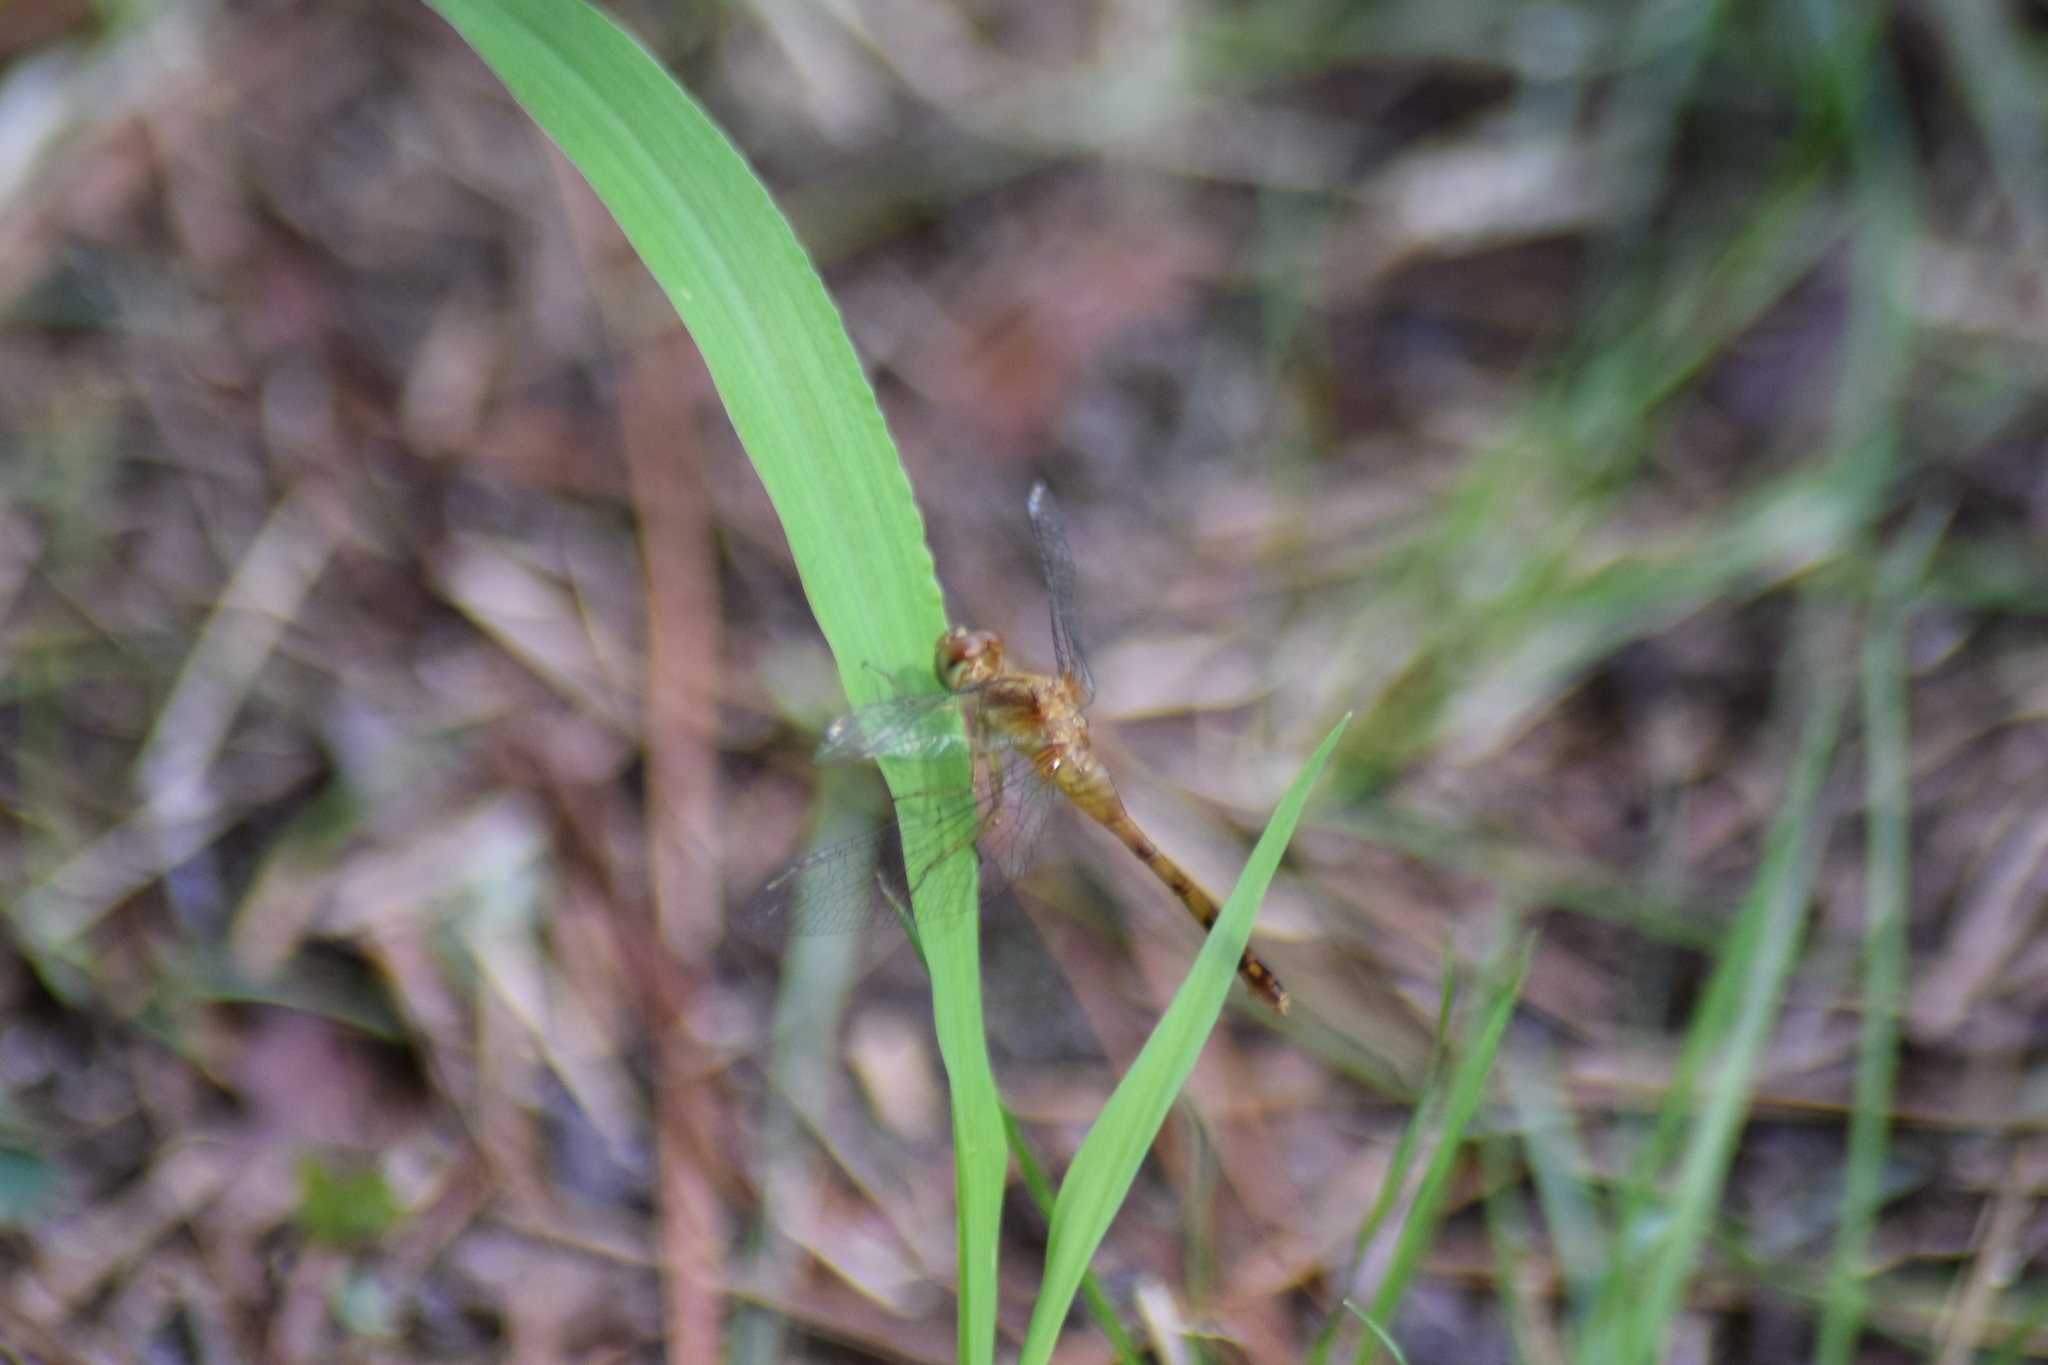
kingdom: Animalia
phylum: Arthropoda
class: Insecta
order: Odonata
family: Libellulidae
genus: Sympetrum
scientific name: Sympetrum vicinum
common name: Autumn meadowhawk
